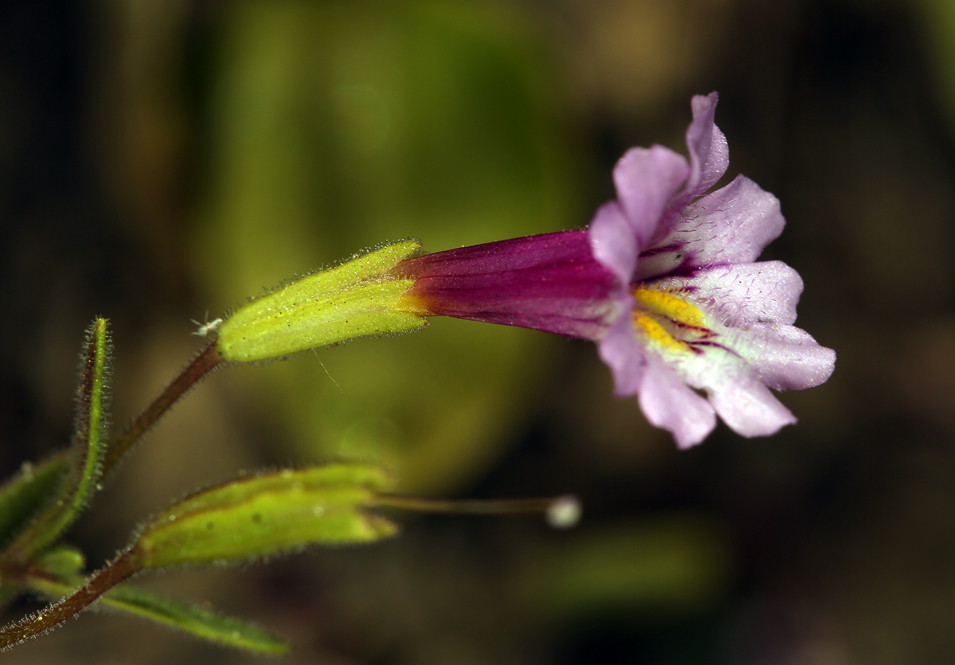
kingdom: Plantae
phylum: Tracheophyta
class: Magnoliopsida
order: Lamiales
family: Phrymaceae
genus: Erythranthe
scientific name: Erythranthe sierrae
